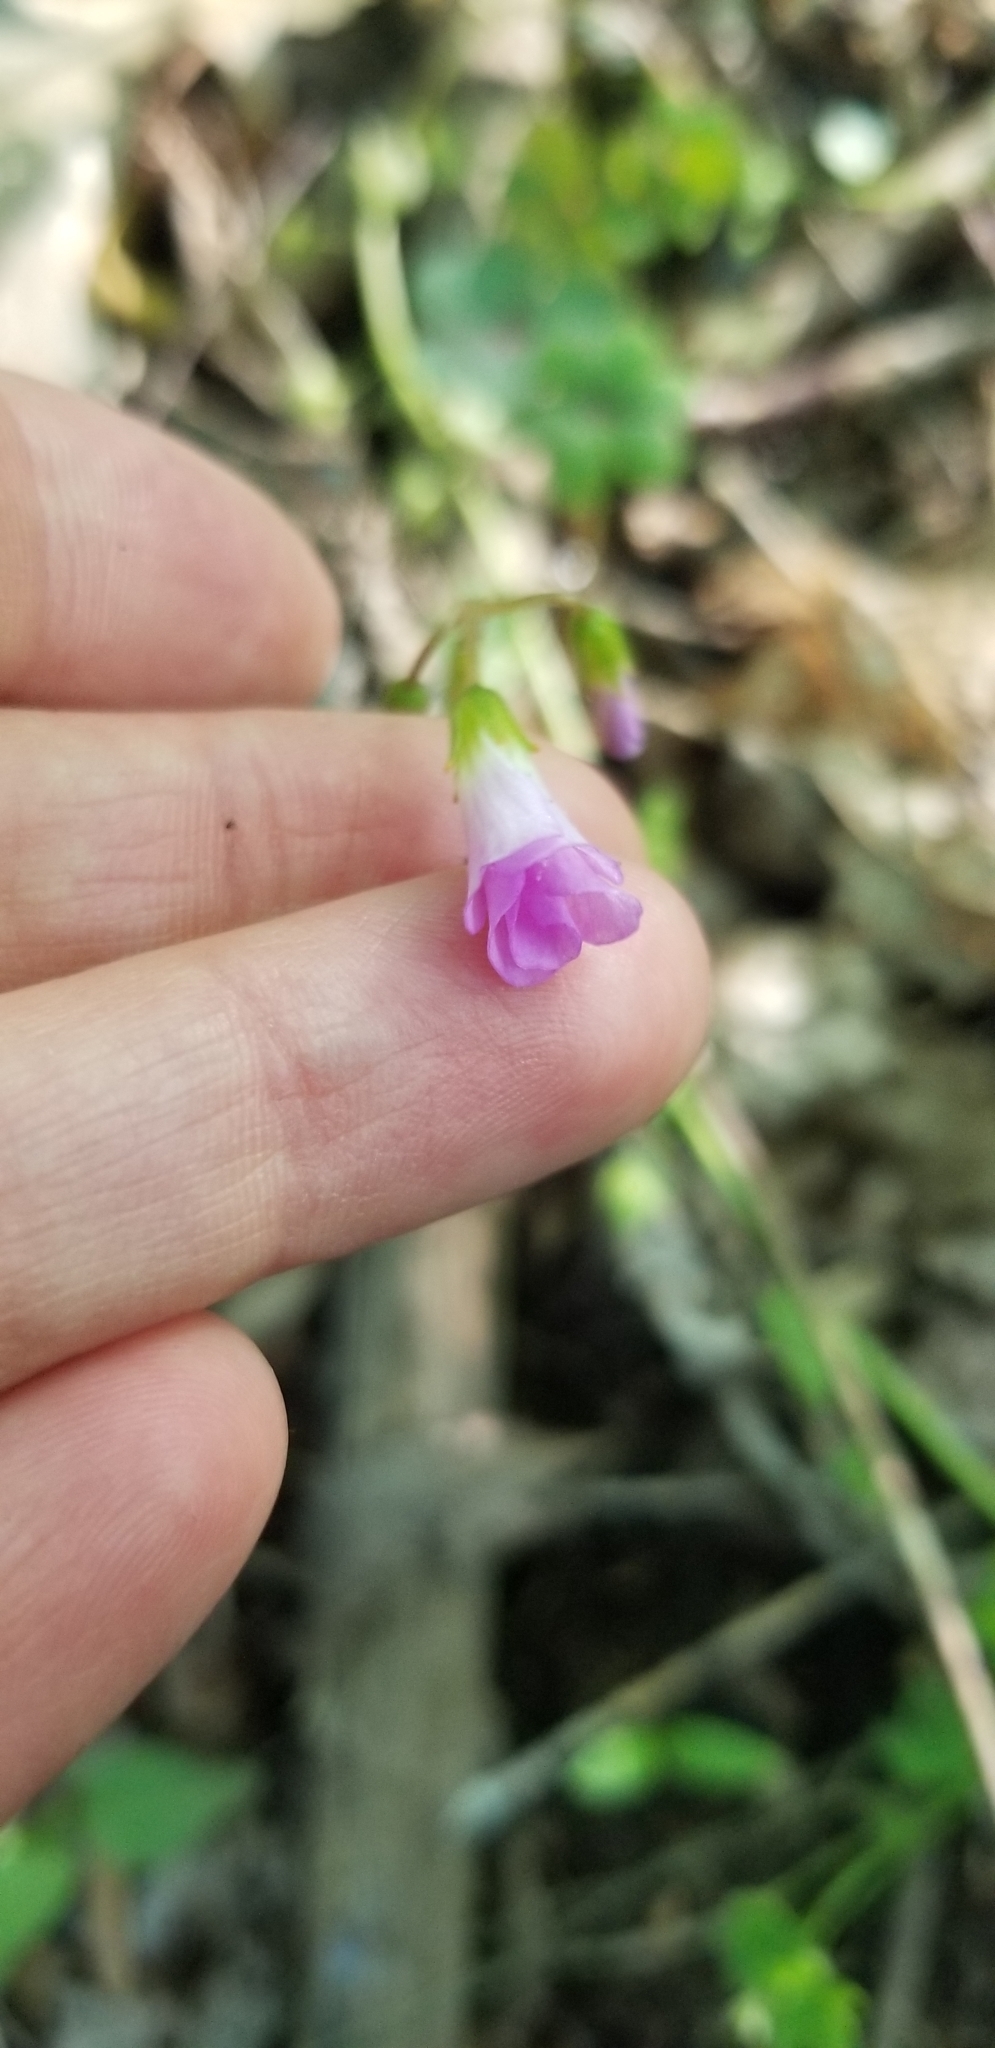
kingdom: Plantae
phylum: Tracheophyta
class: Magnoliopsida
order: Oxalidales
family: Oxalidaceae
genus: Oxalis
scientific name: Oxalis violacea
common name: Violet wood-sorrel
